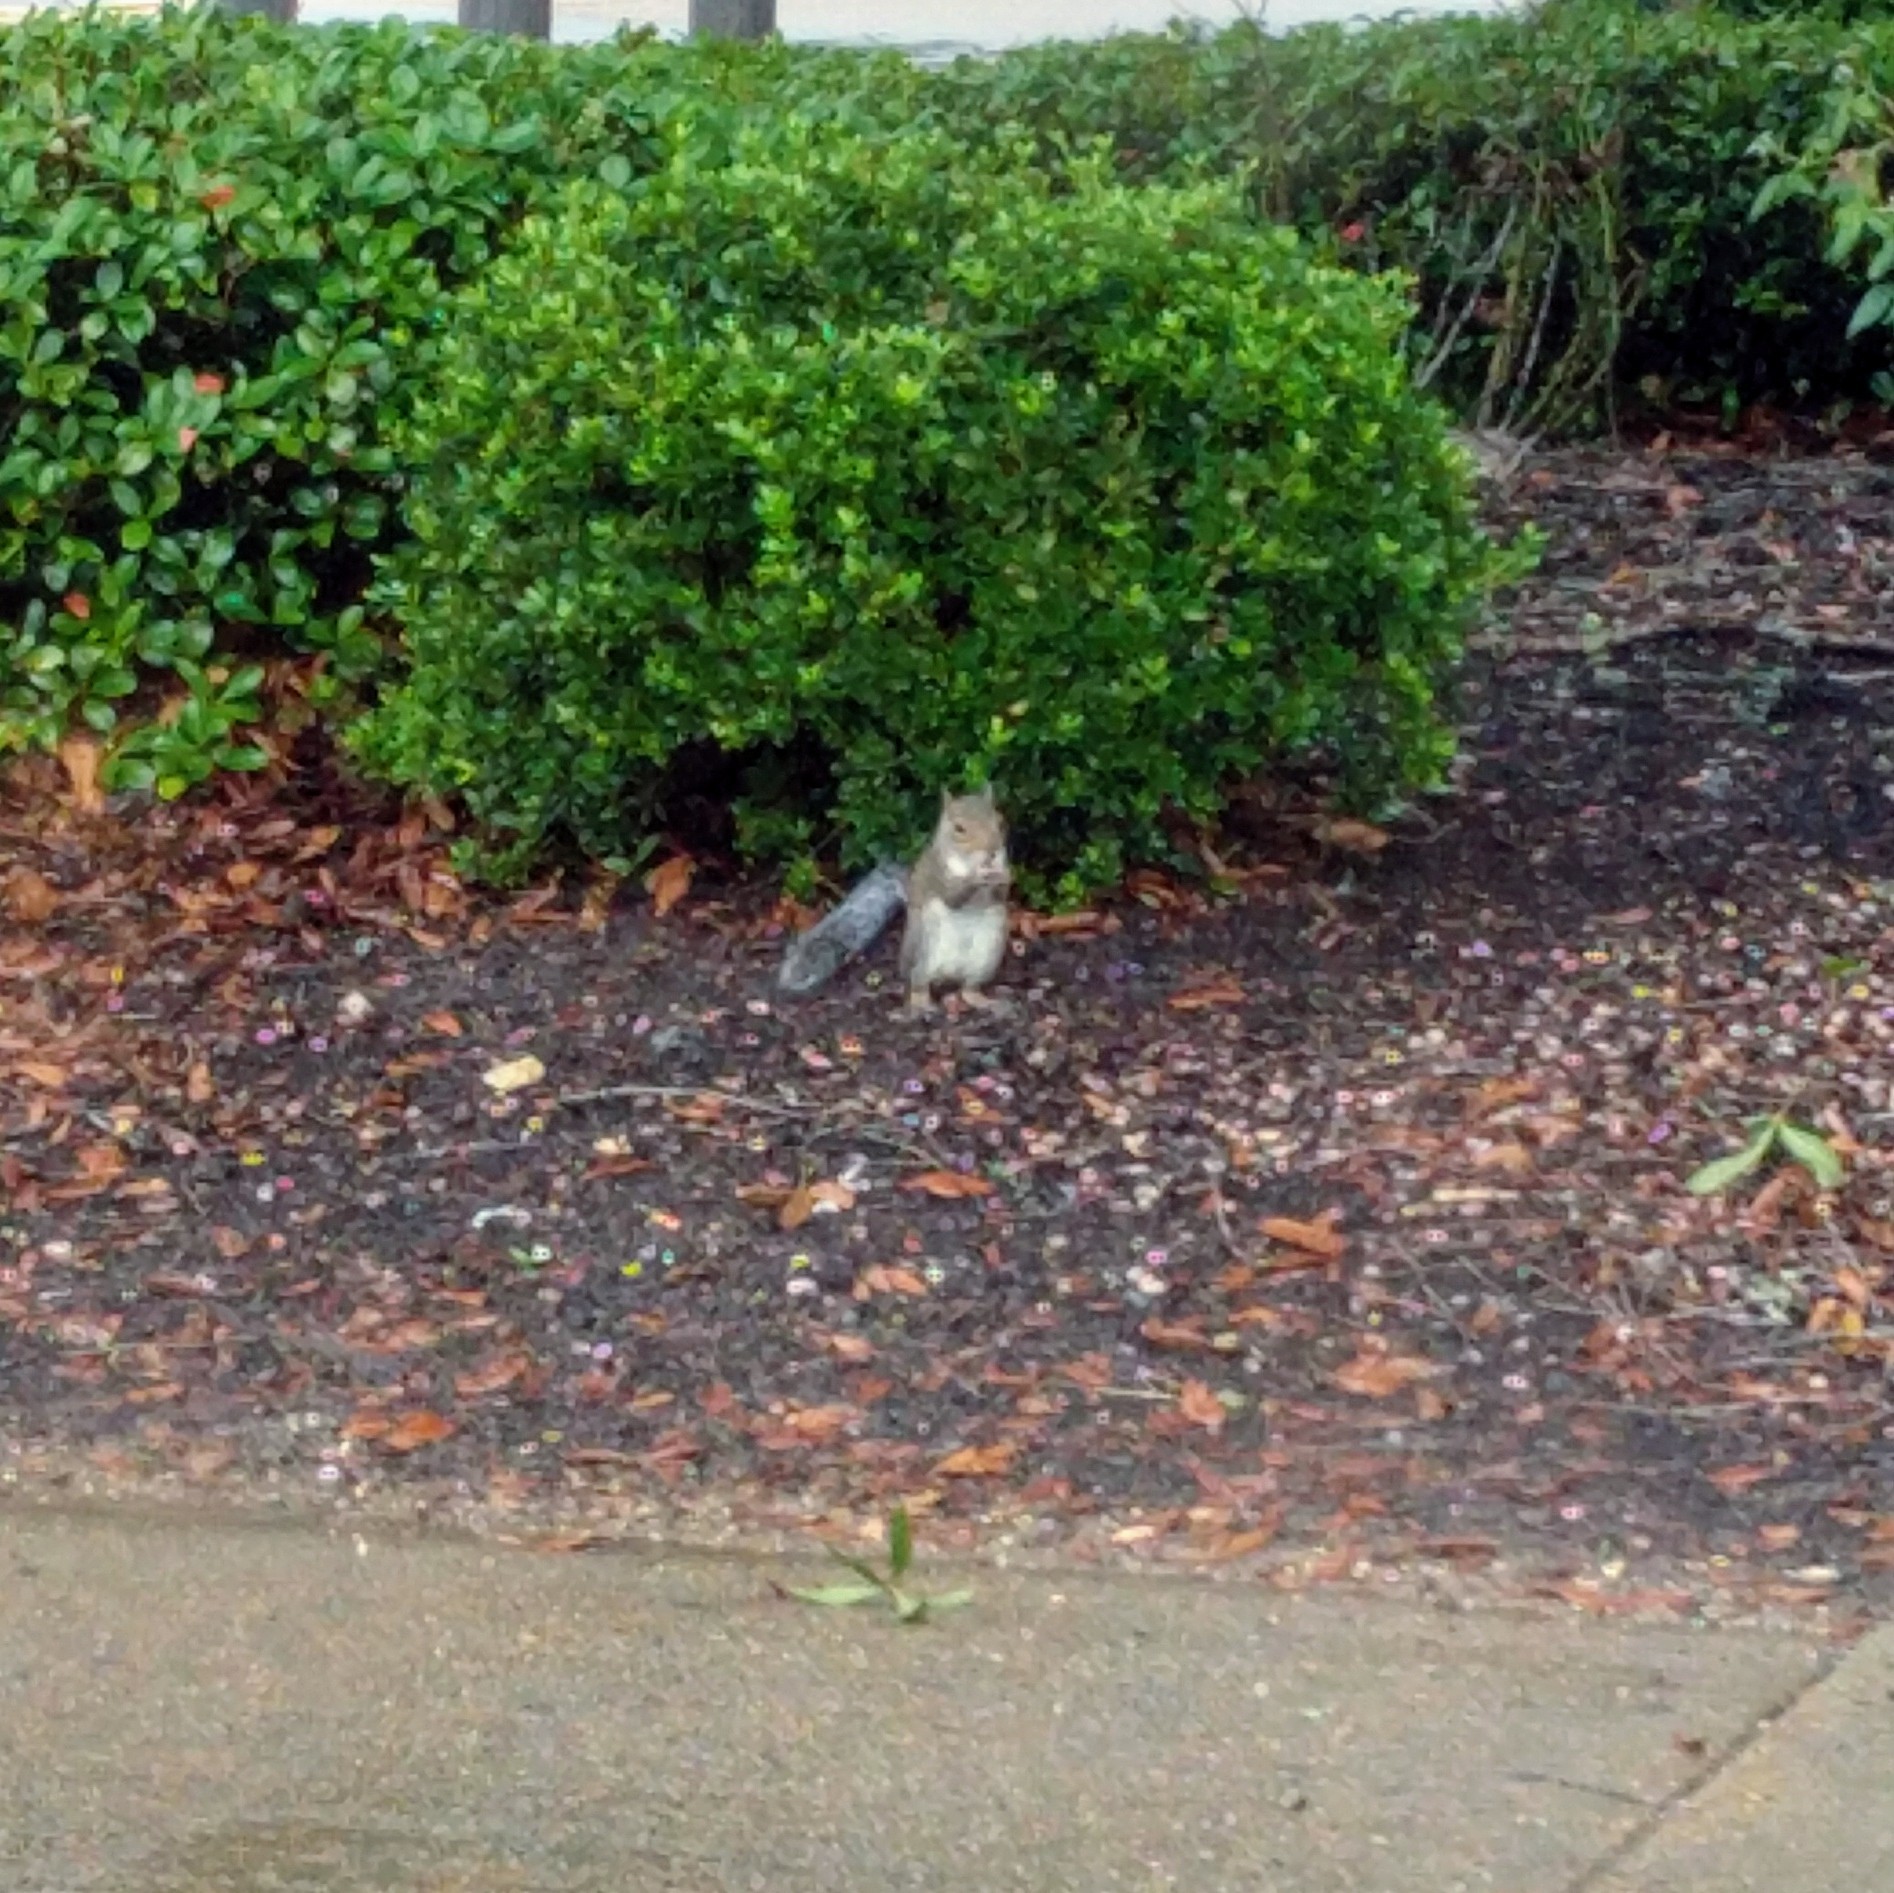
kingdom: Animalia
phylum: Chordata
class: Mammalia
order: Rodentia
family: Sciuridae
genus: Sciurus
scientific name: Sciurus carolinensis
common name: Eastern gray squirrel
